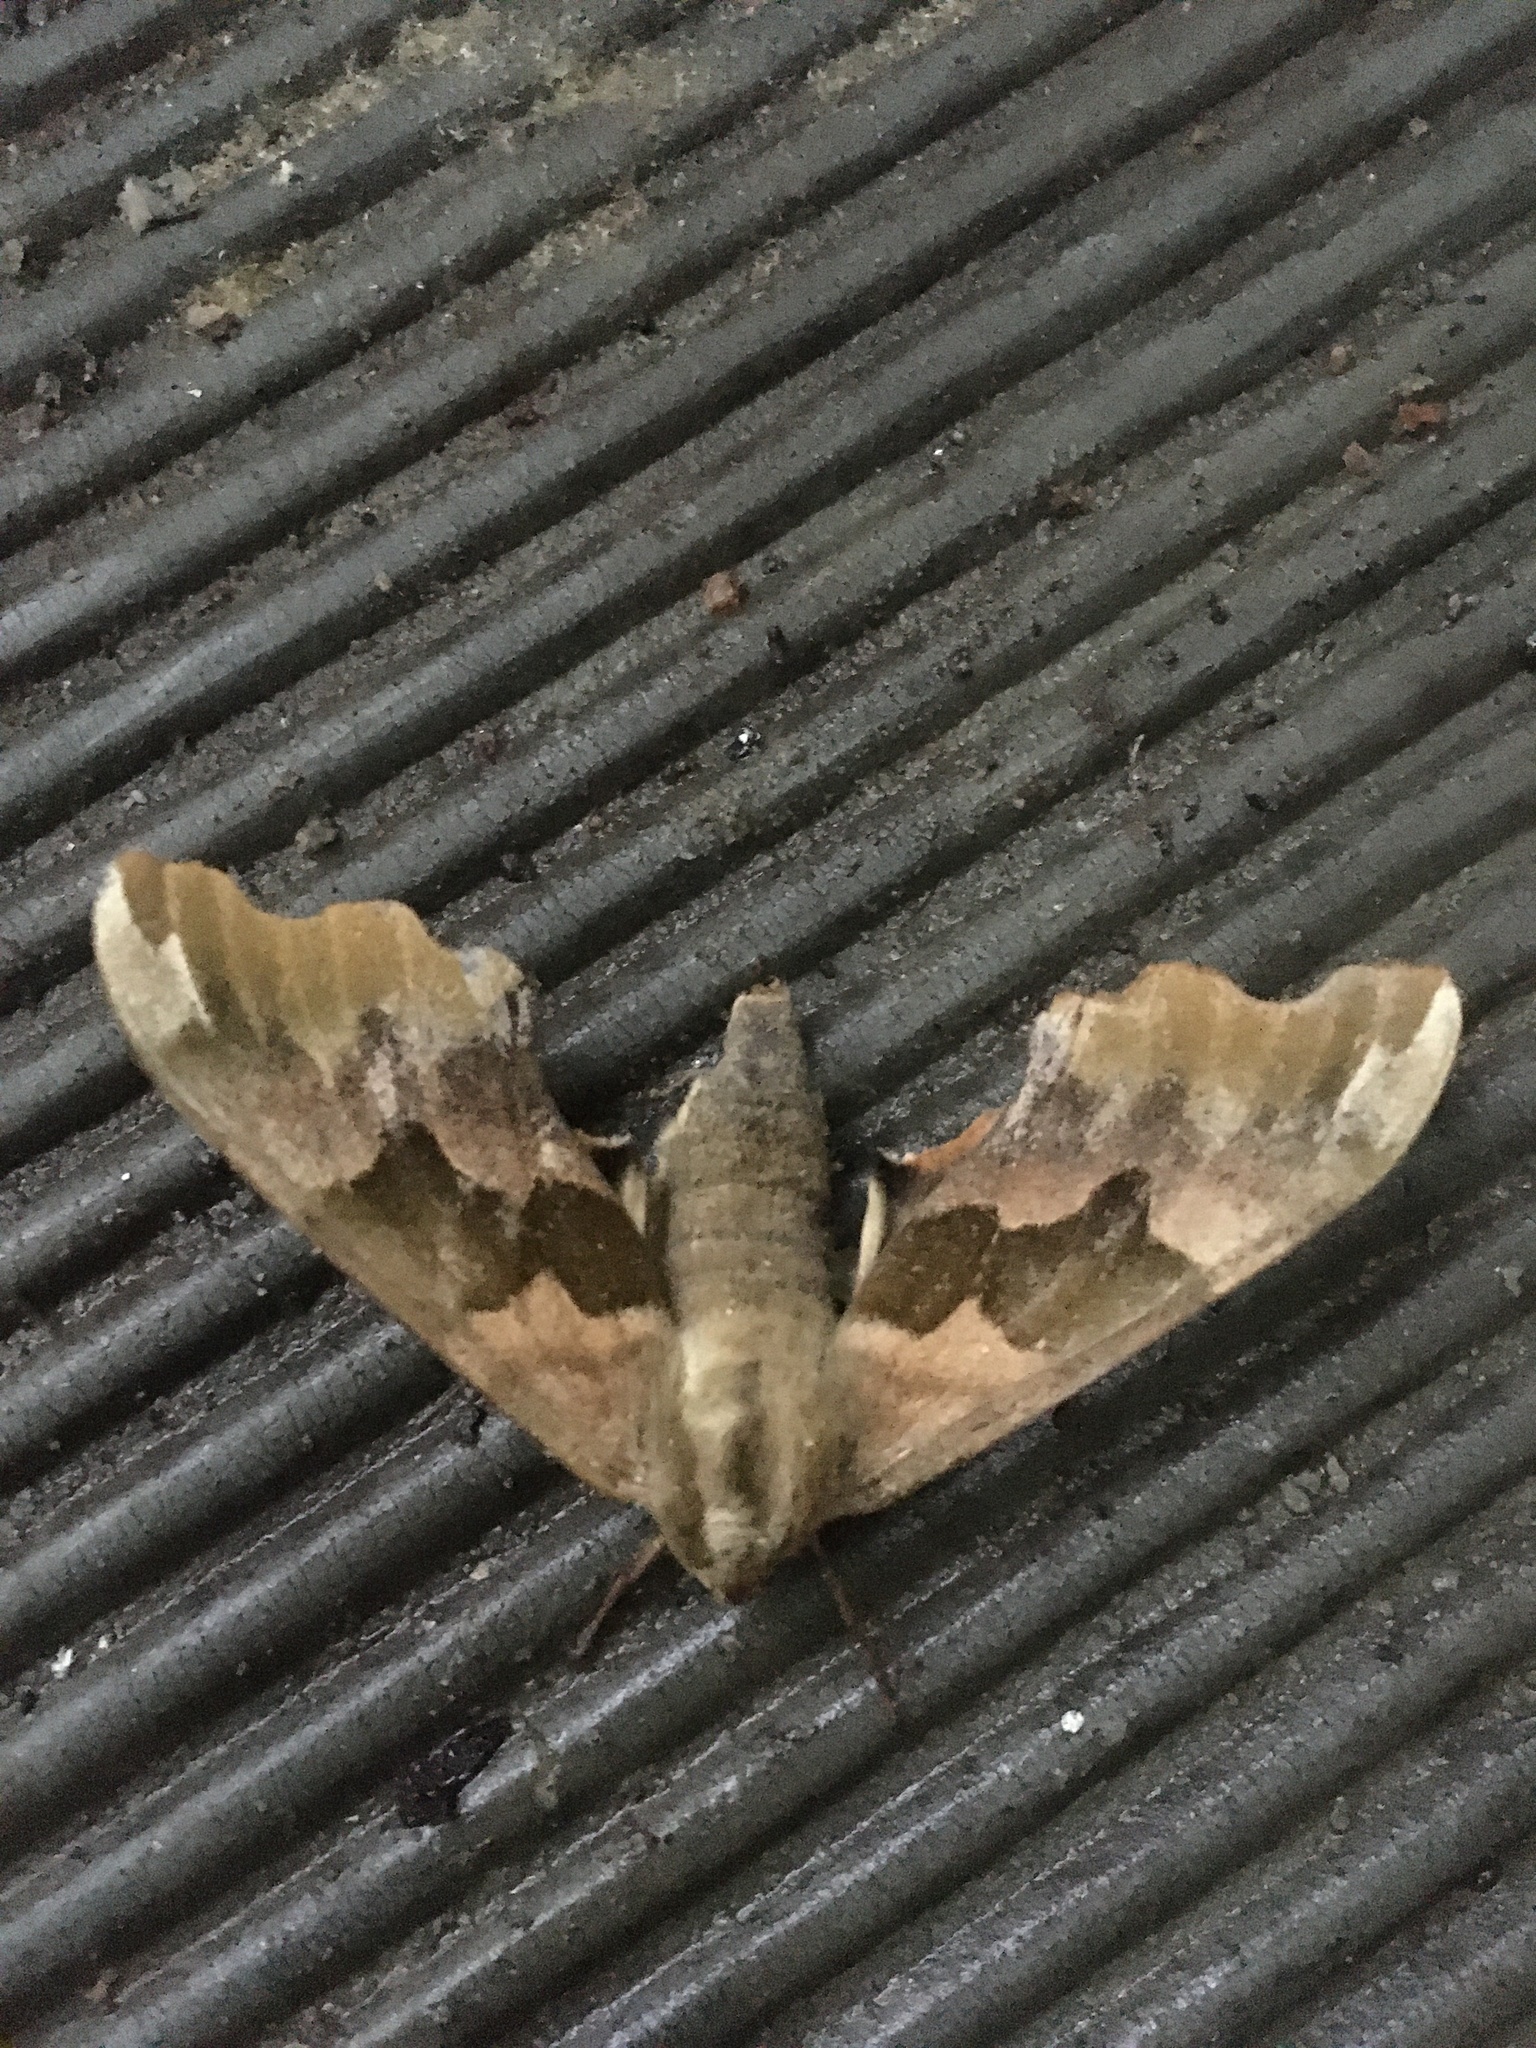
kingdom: Animalia
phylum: Arthropoda
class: Insecta
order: Lepidoptera
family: Sphingidae
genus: Mimas
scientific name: Mimas tiliae
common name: Lime hawk-moth
